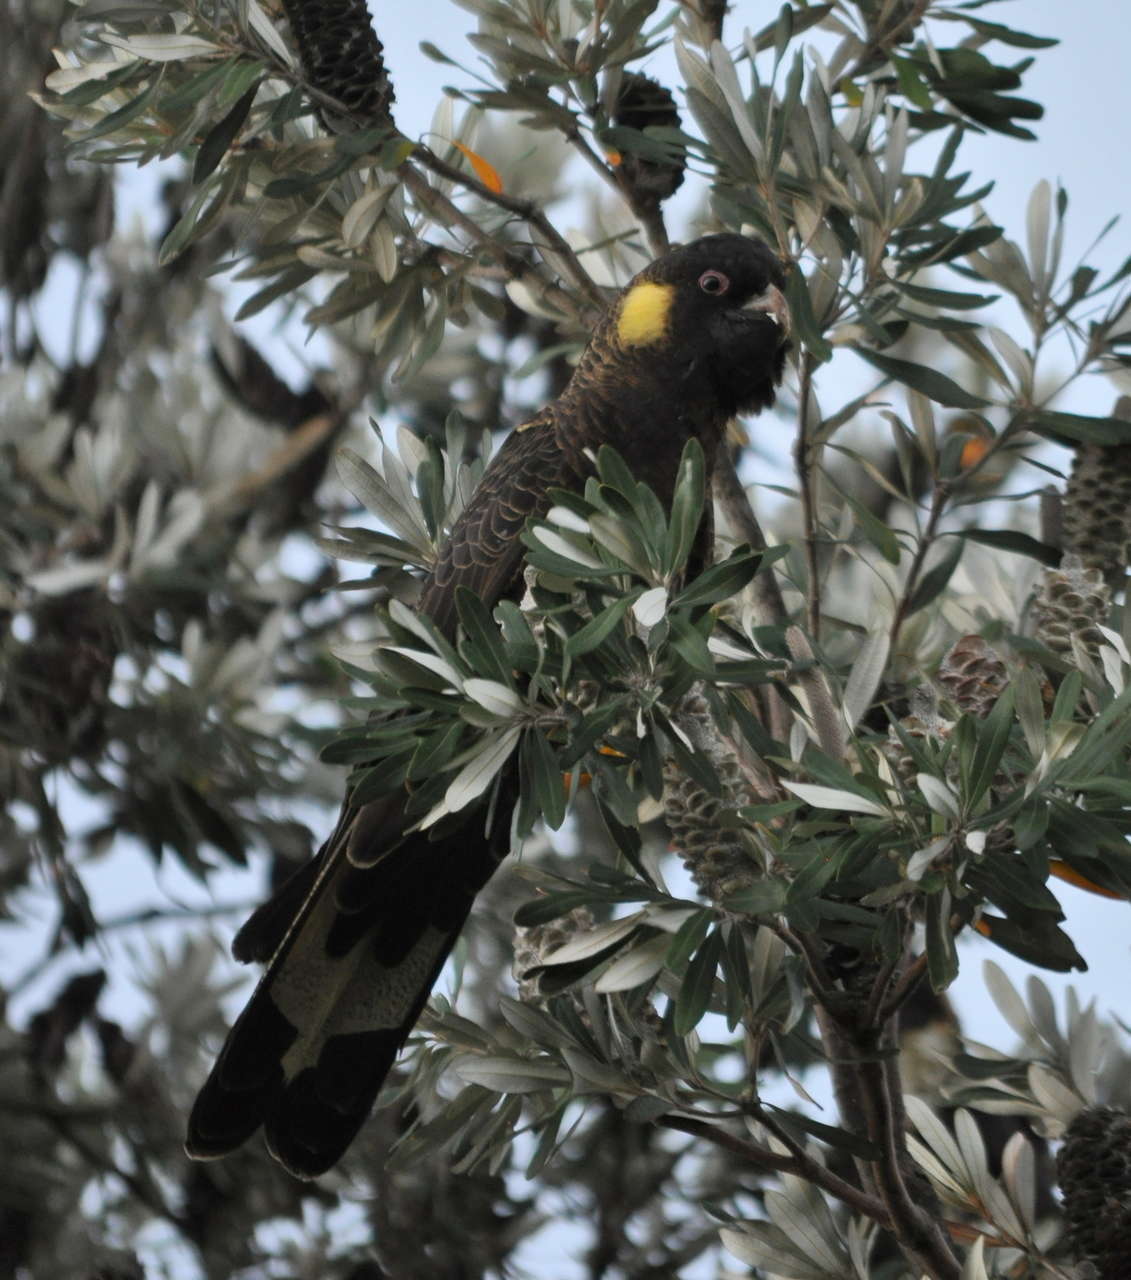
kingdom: Animalia
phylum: Chordata
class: Aves
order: Psittaciformes
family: Cacatuidae
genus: Zanda
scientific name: Zanda funerea
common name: Yellow-tailed black-cockatoo
